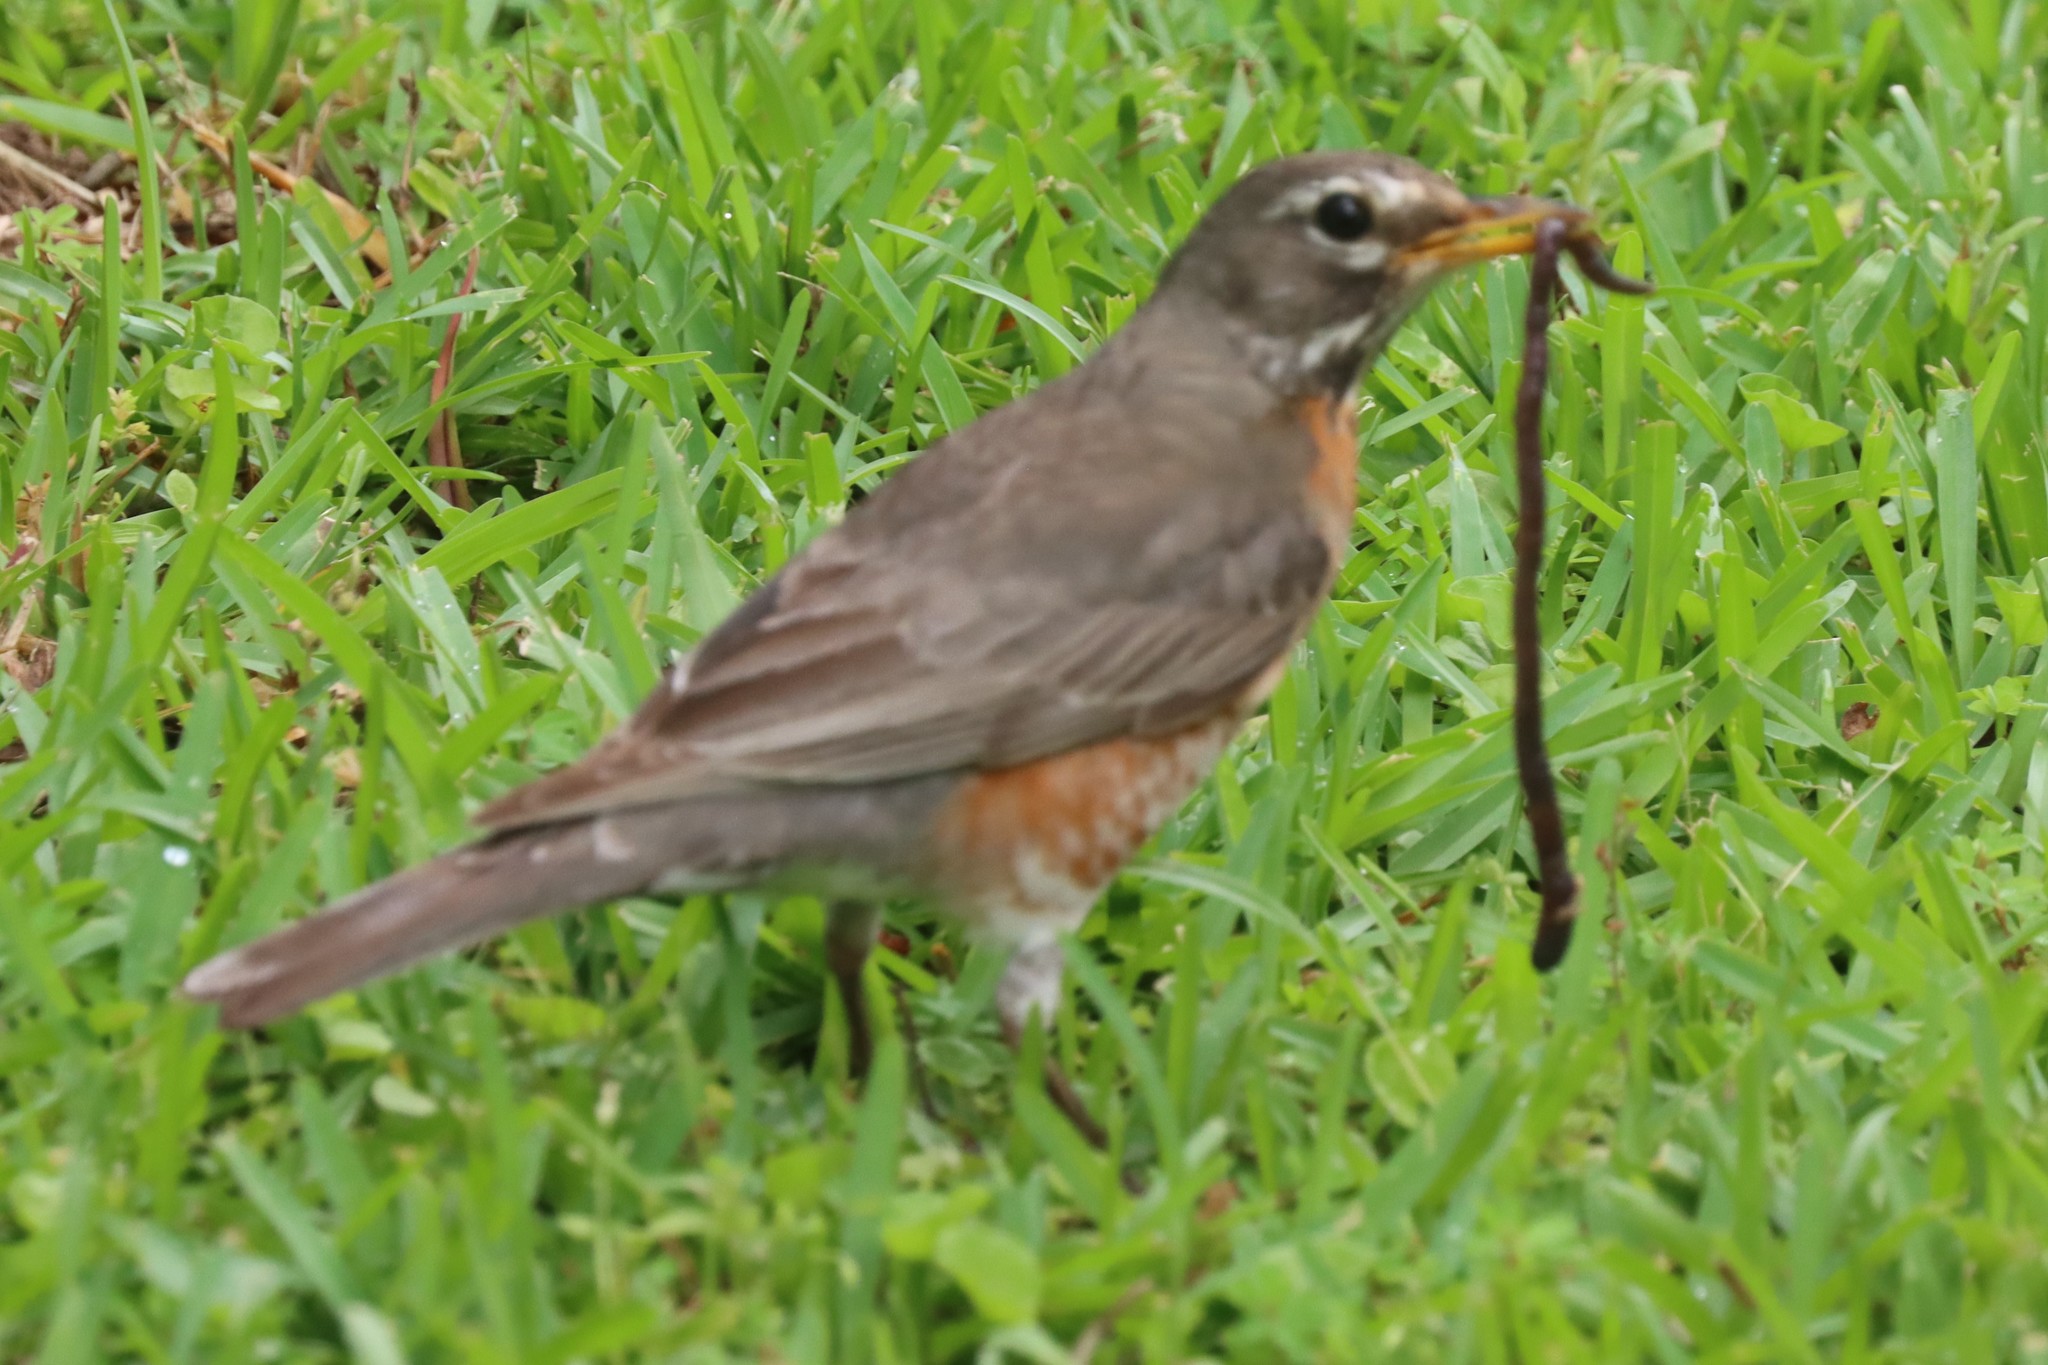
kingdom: Animalia
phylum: Chordata
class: Aves
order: Passeriformes
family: Turdidae
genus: Turdus
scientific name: Turdus migratorius
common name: American robin
